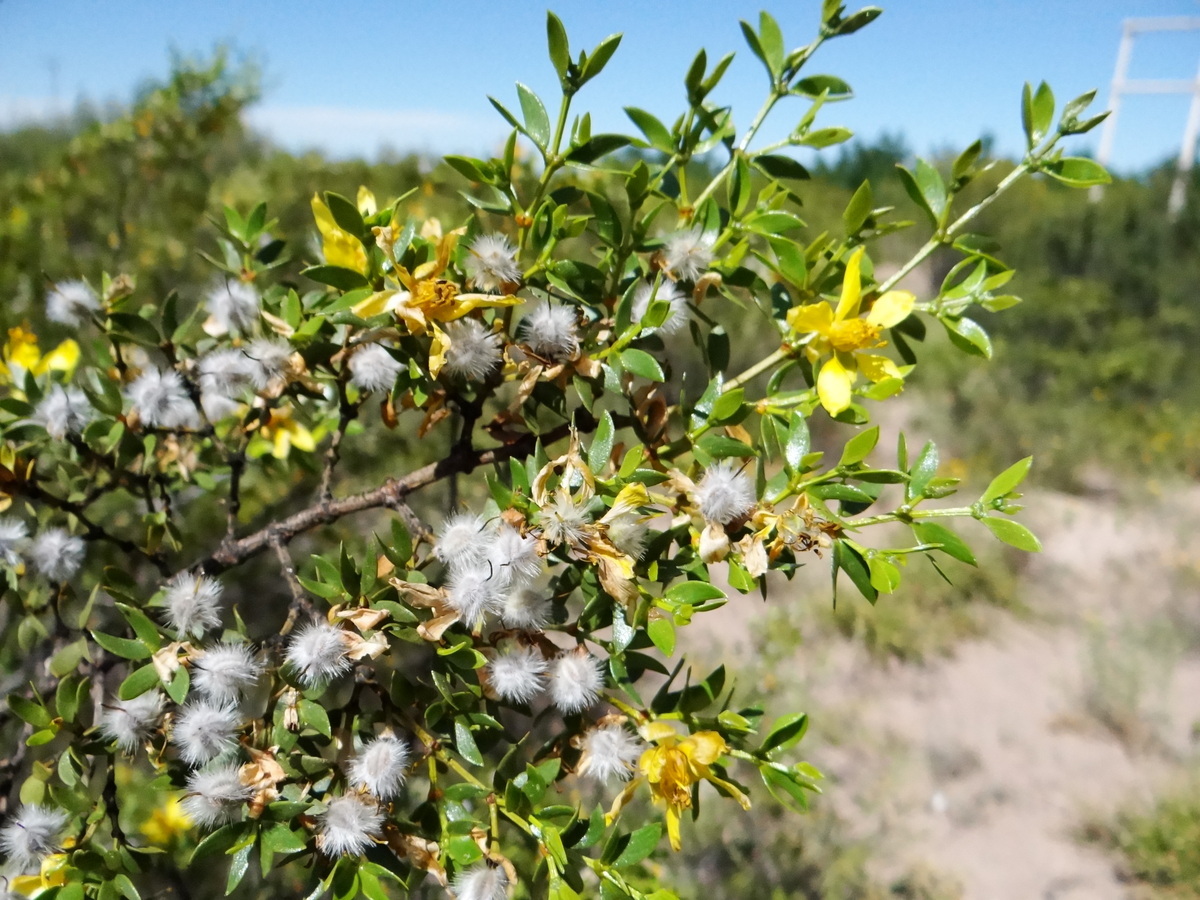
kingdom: Plantae
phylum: Tracheophyta
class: Magnoliopsida
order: Zygophyllales
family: Zygophyllaceae
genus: Larrea
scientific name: Larrea divaricata
